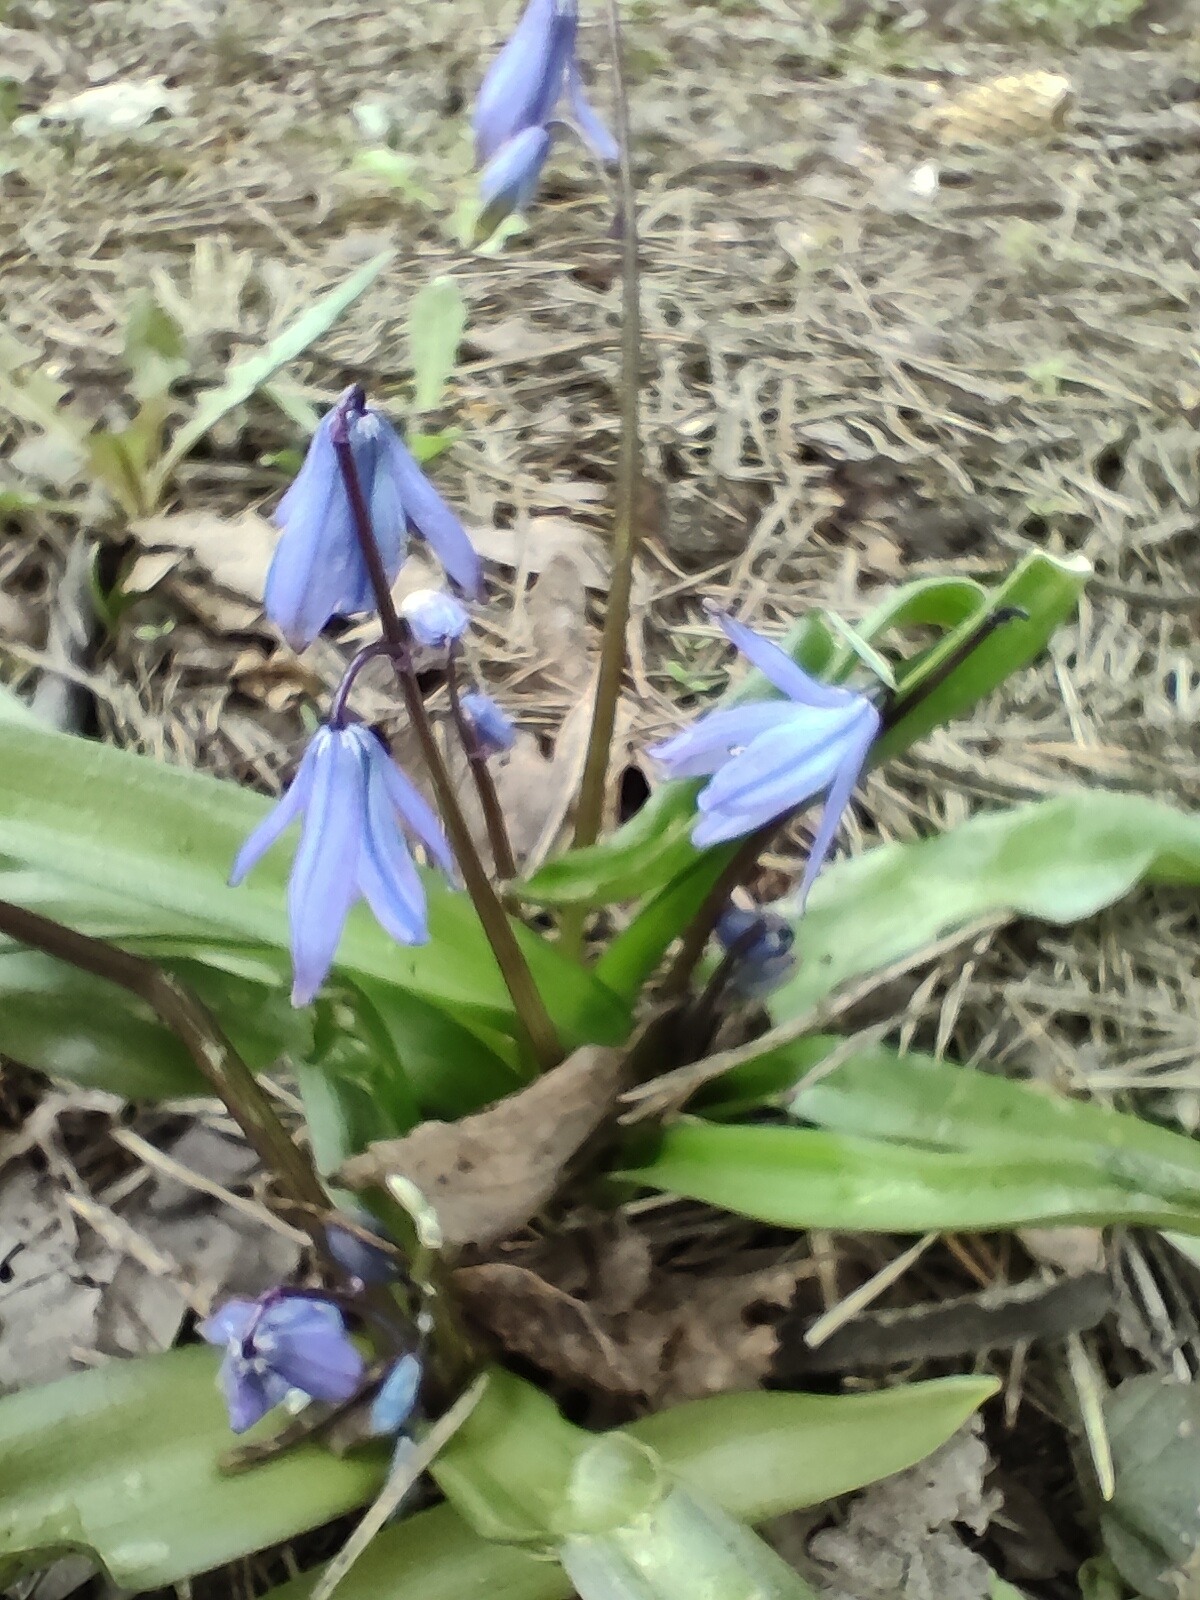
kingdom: Plantae
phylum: Tracheophyta
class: Liliopsida
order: Asparagales
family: Asparagaceae
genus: Scilla
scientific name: Scilla siberica
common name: Siberian squill
